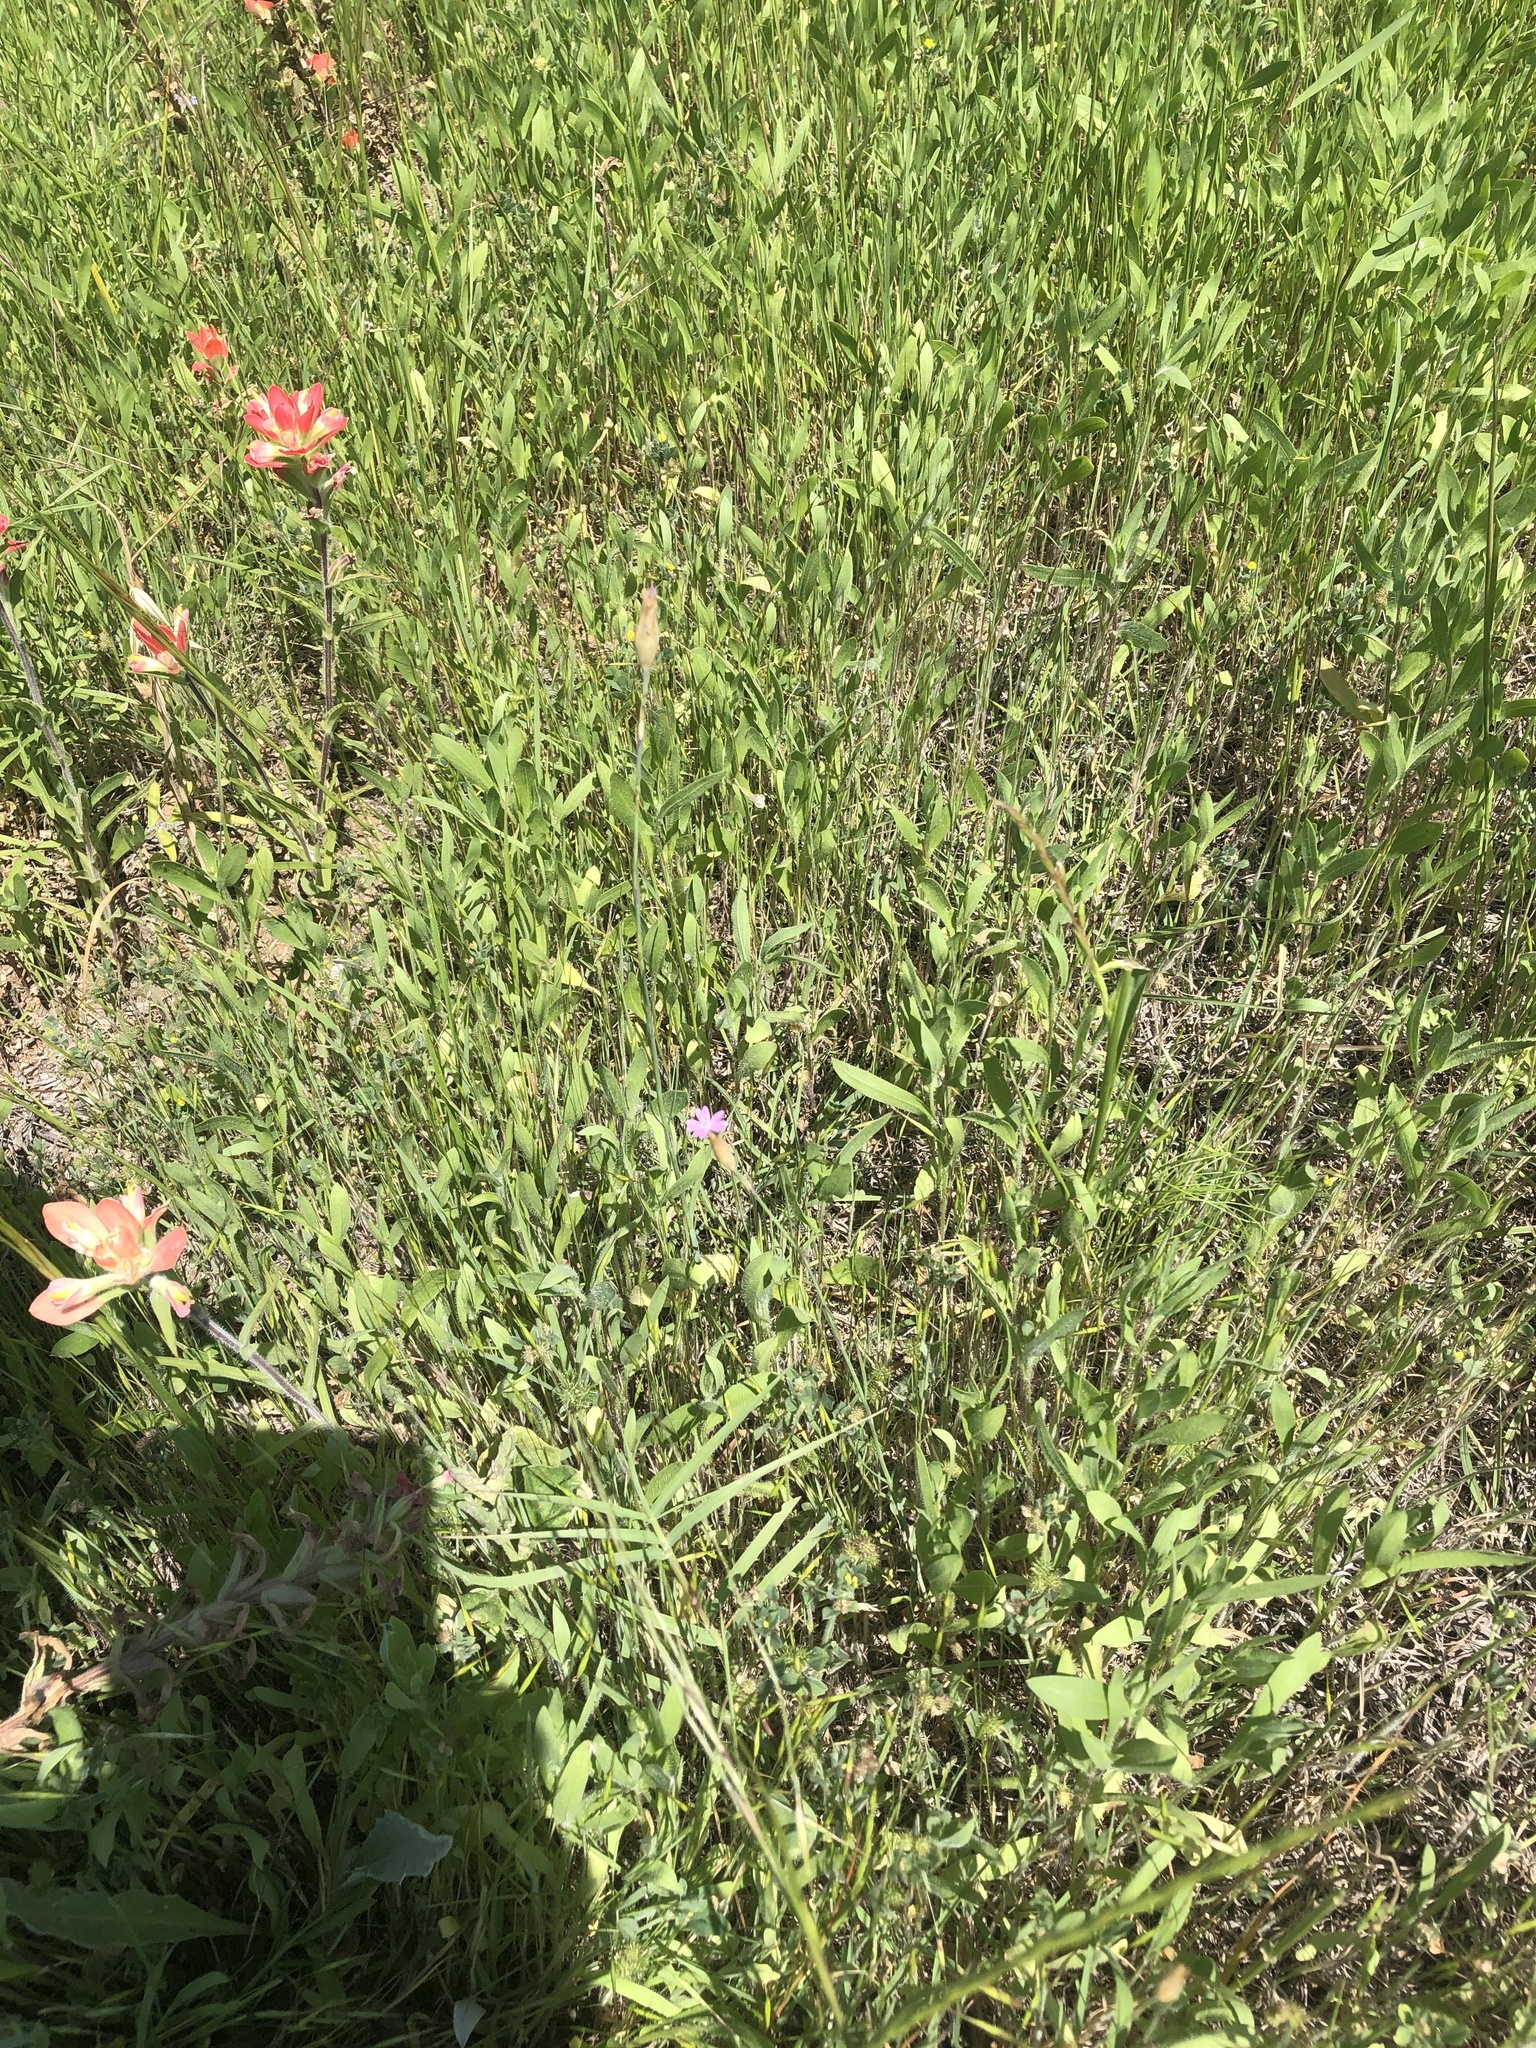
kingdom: Plantae
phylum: Tracheophyta
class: Magnoliopsida
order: Caryophyllales
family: Caryophyllaceae
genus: Petrorhagia
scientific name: Petrorhagia dubia
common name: Hairypink
